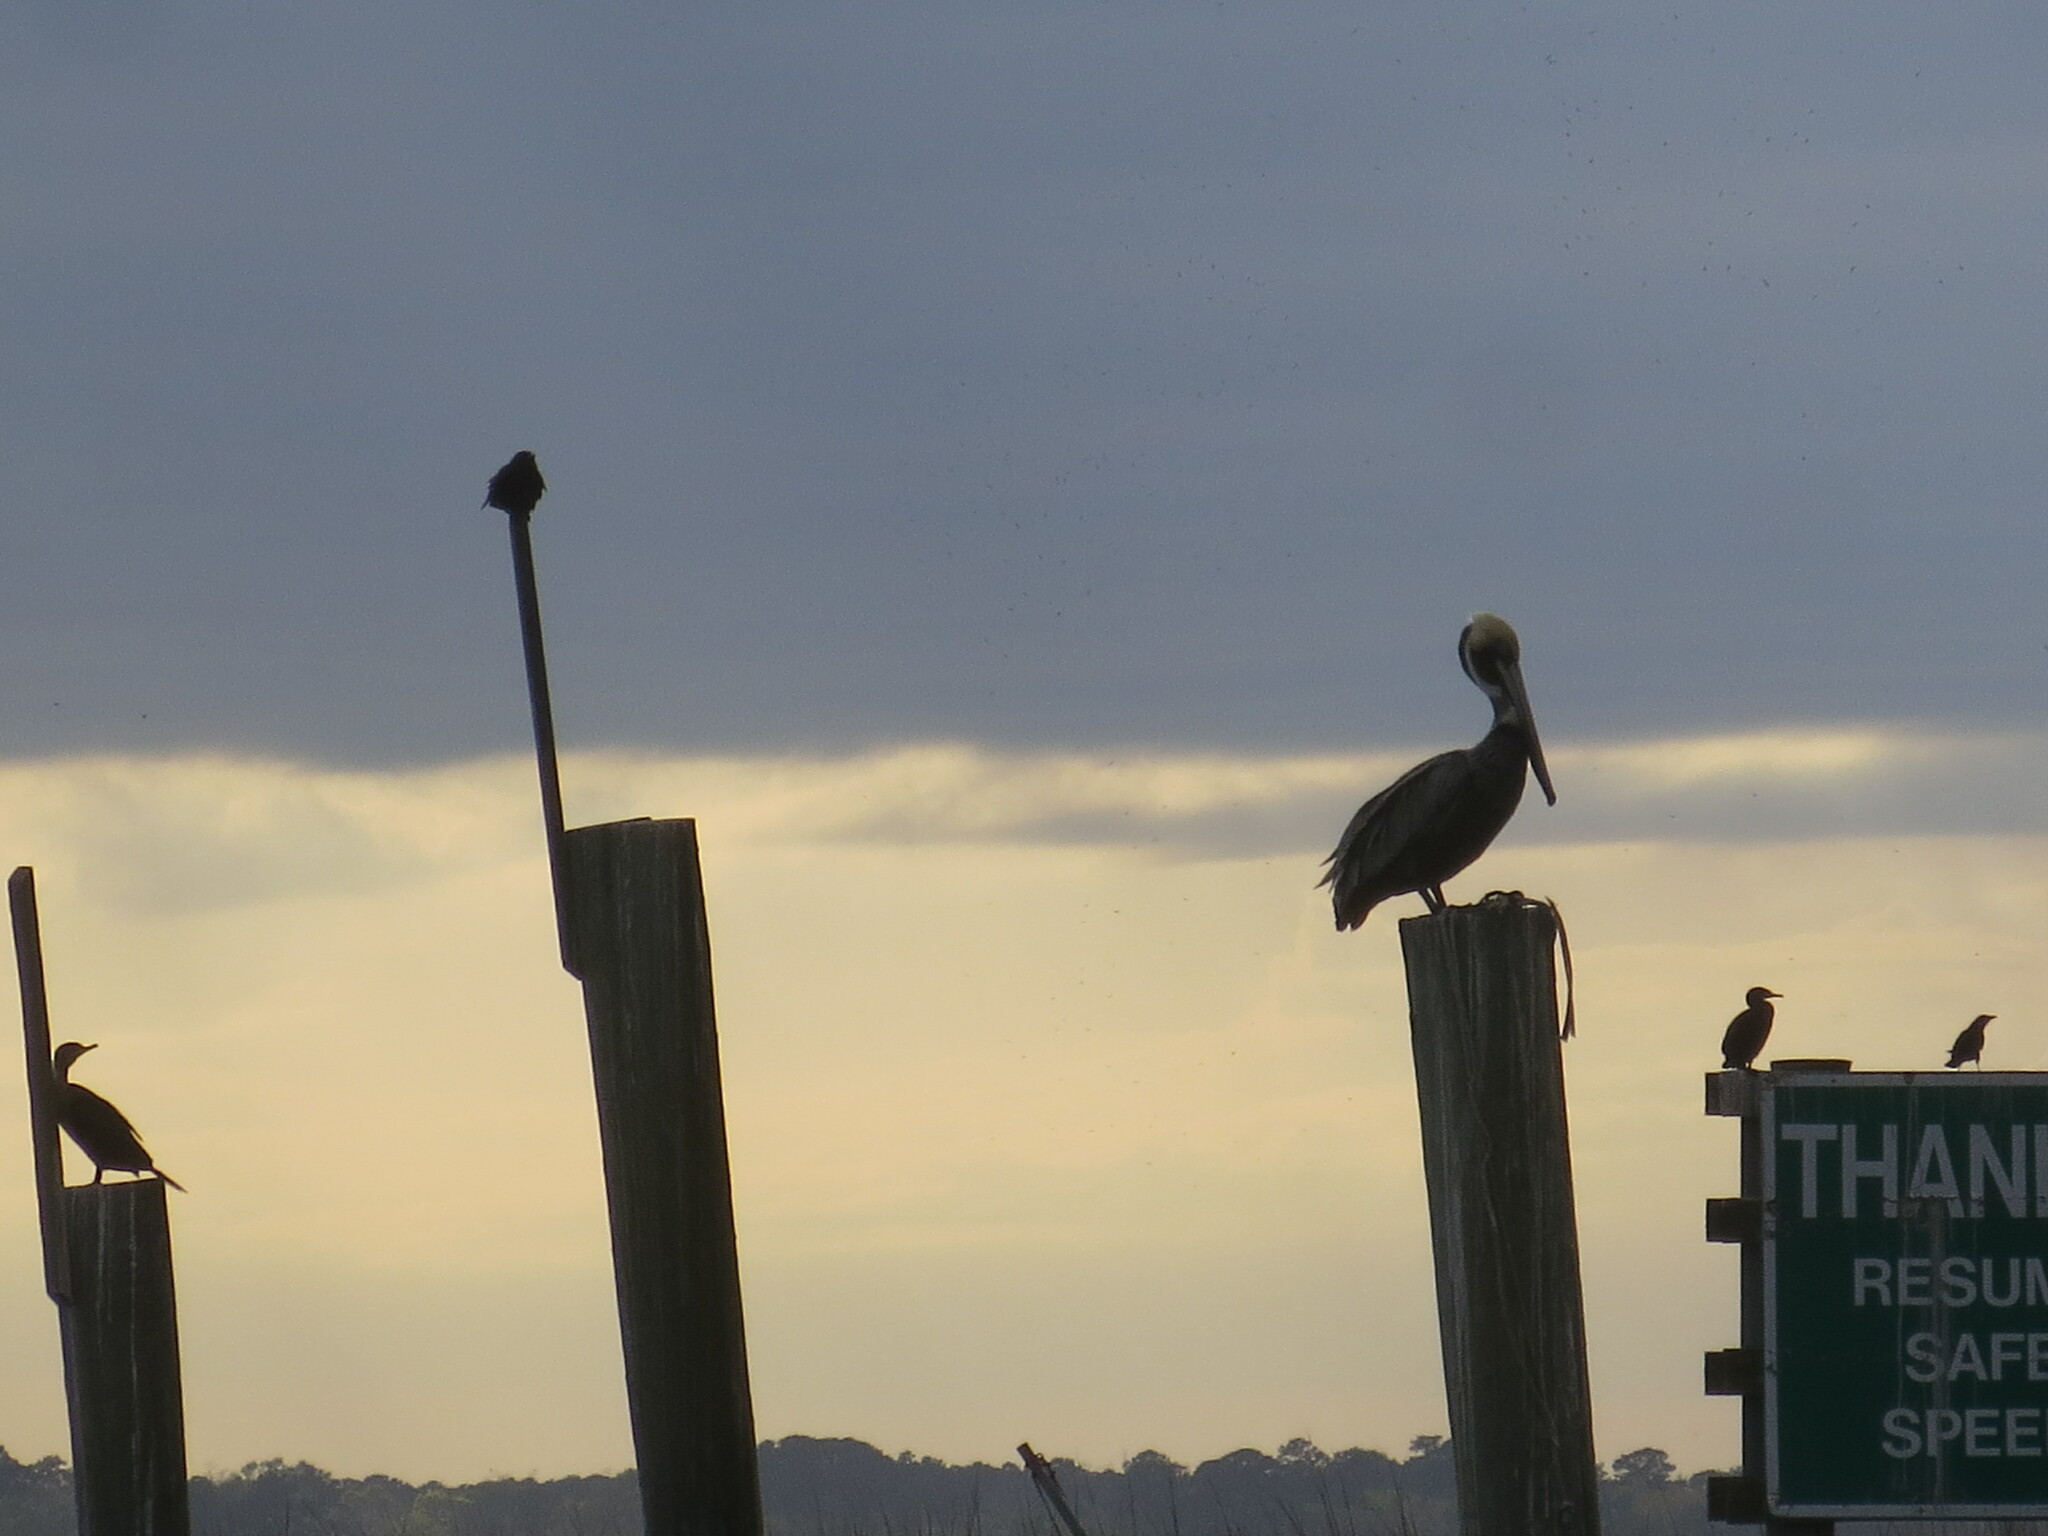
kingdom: Animalia
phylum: Chordata
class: Aves
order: Pelecaniformes
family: Pelecanidae
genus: Pelecanus
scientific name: Pelecanus occidentalis
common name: Brown pelican
